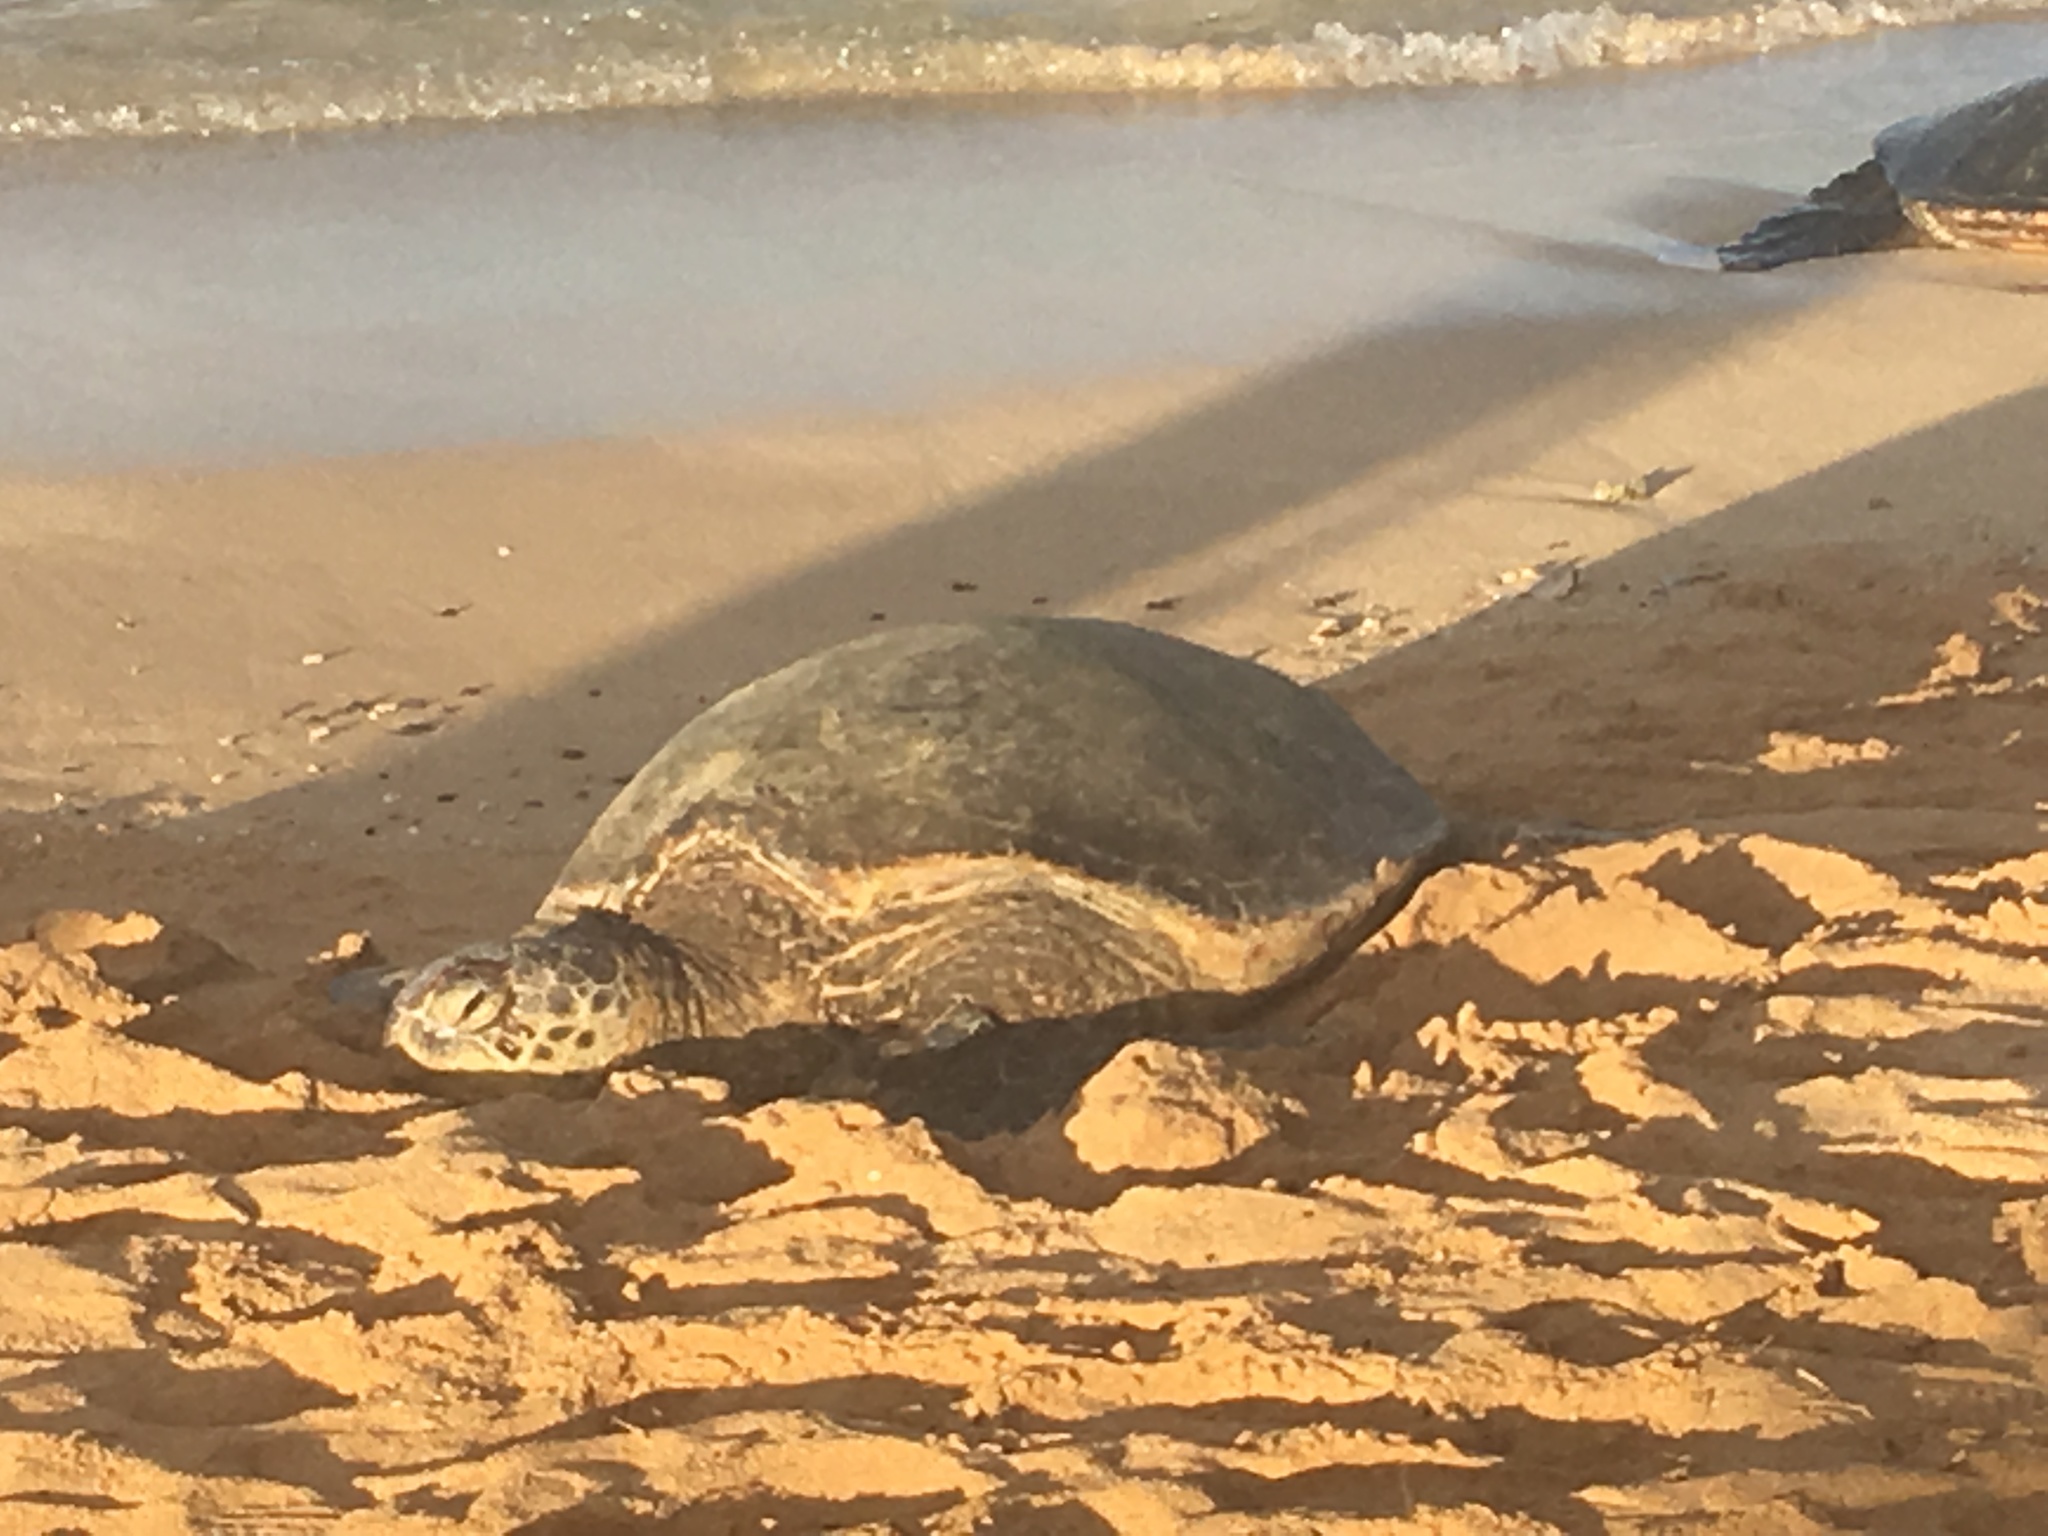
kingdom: Animalia
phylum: Chordata
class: Testudines
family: Cheloniidae
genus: Chelonia
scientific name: Chelonia mydas
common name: Green turtle
